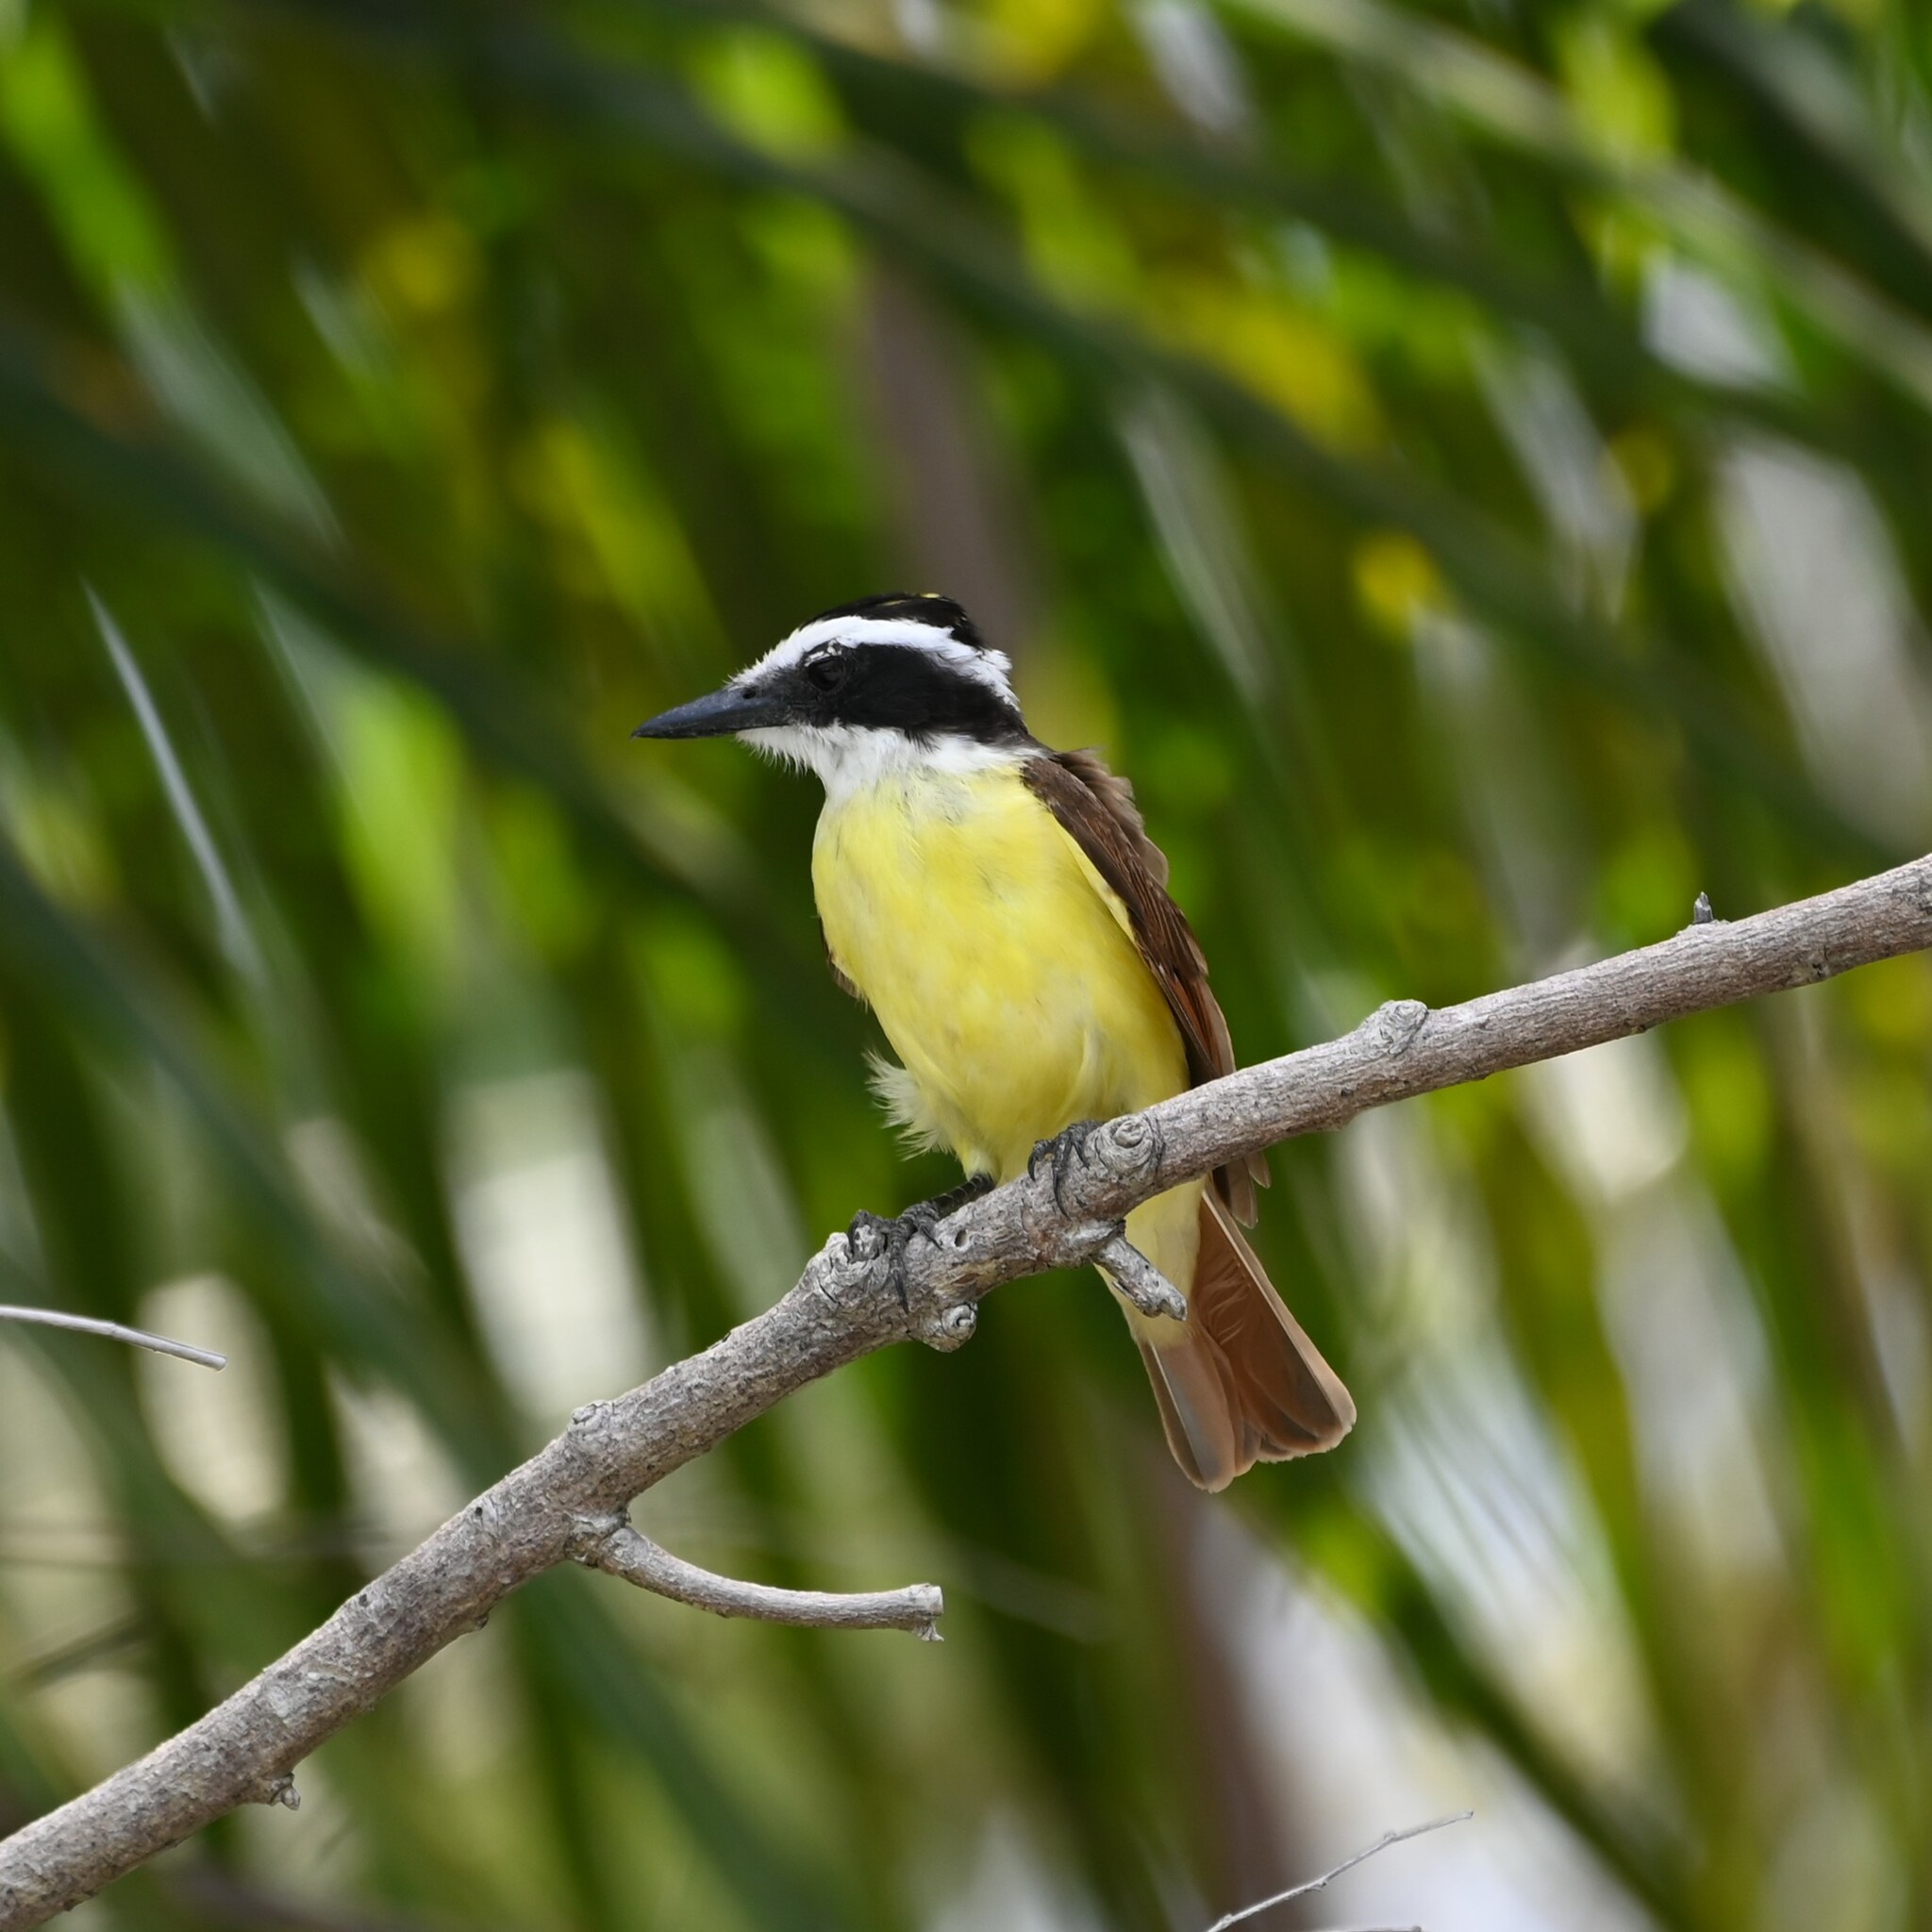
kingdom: Animalia
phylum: Chordata
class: Aves
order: Passeriformes
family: Tyrannidae
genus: Pitangus
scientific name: Pitangus sulphuratus
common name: Great kiskadee
